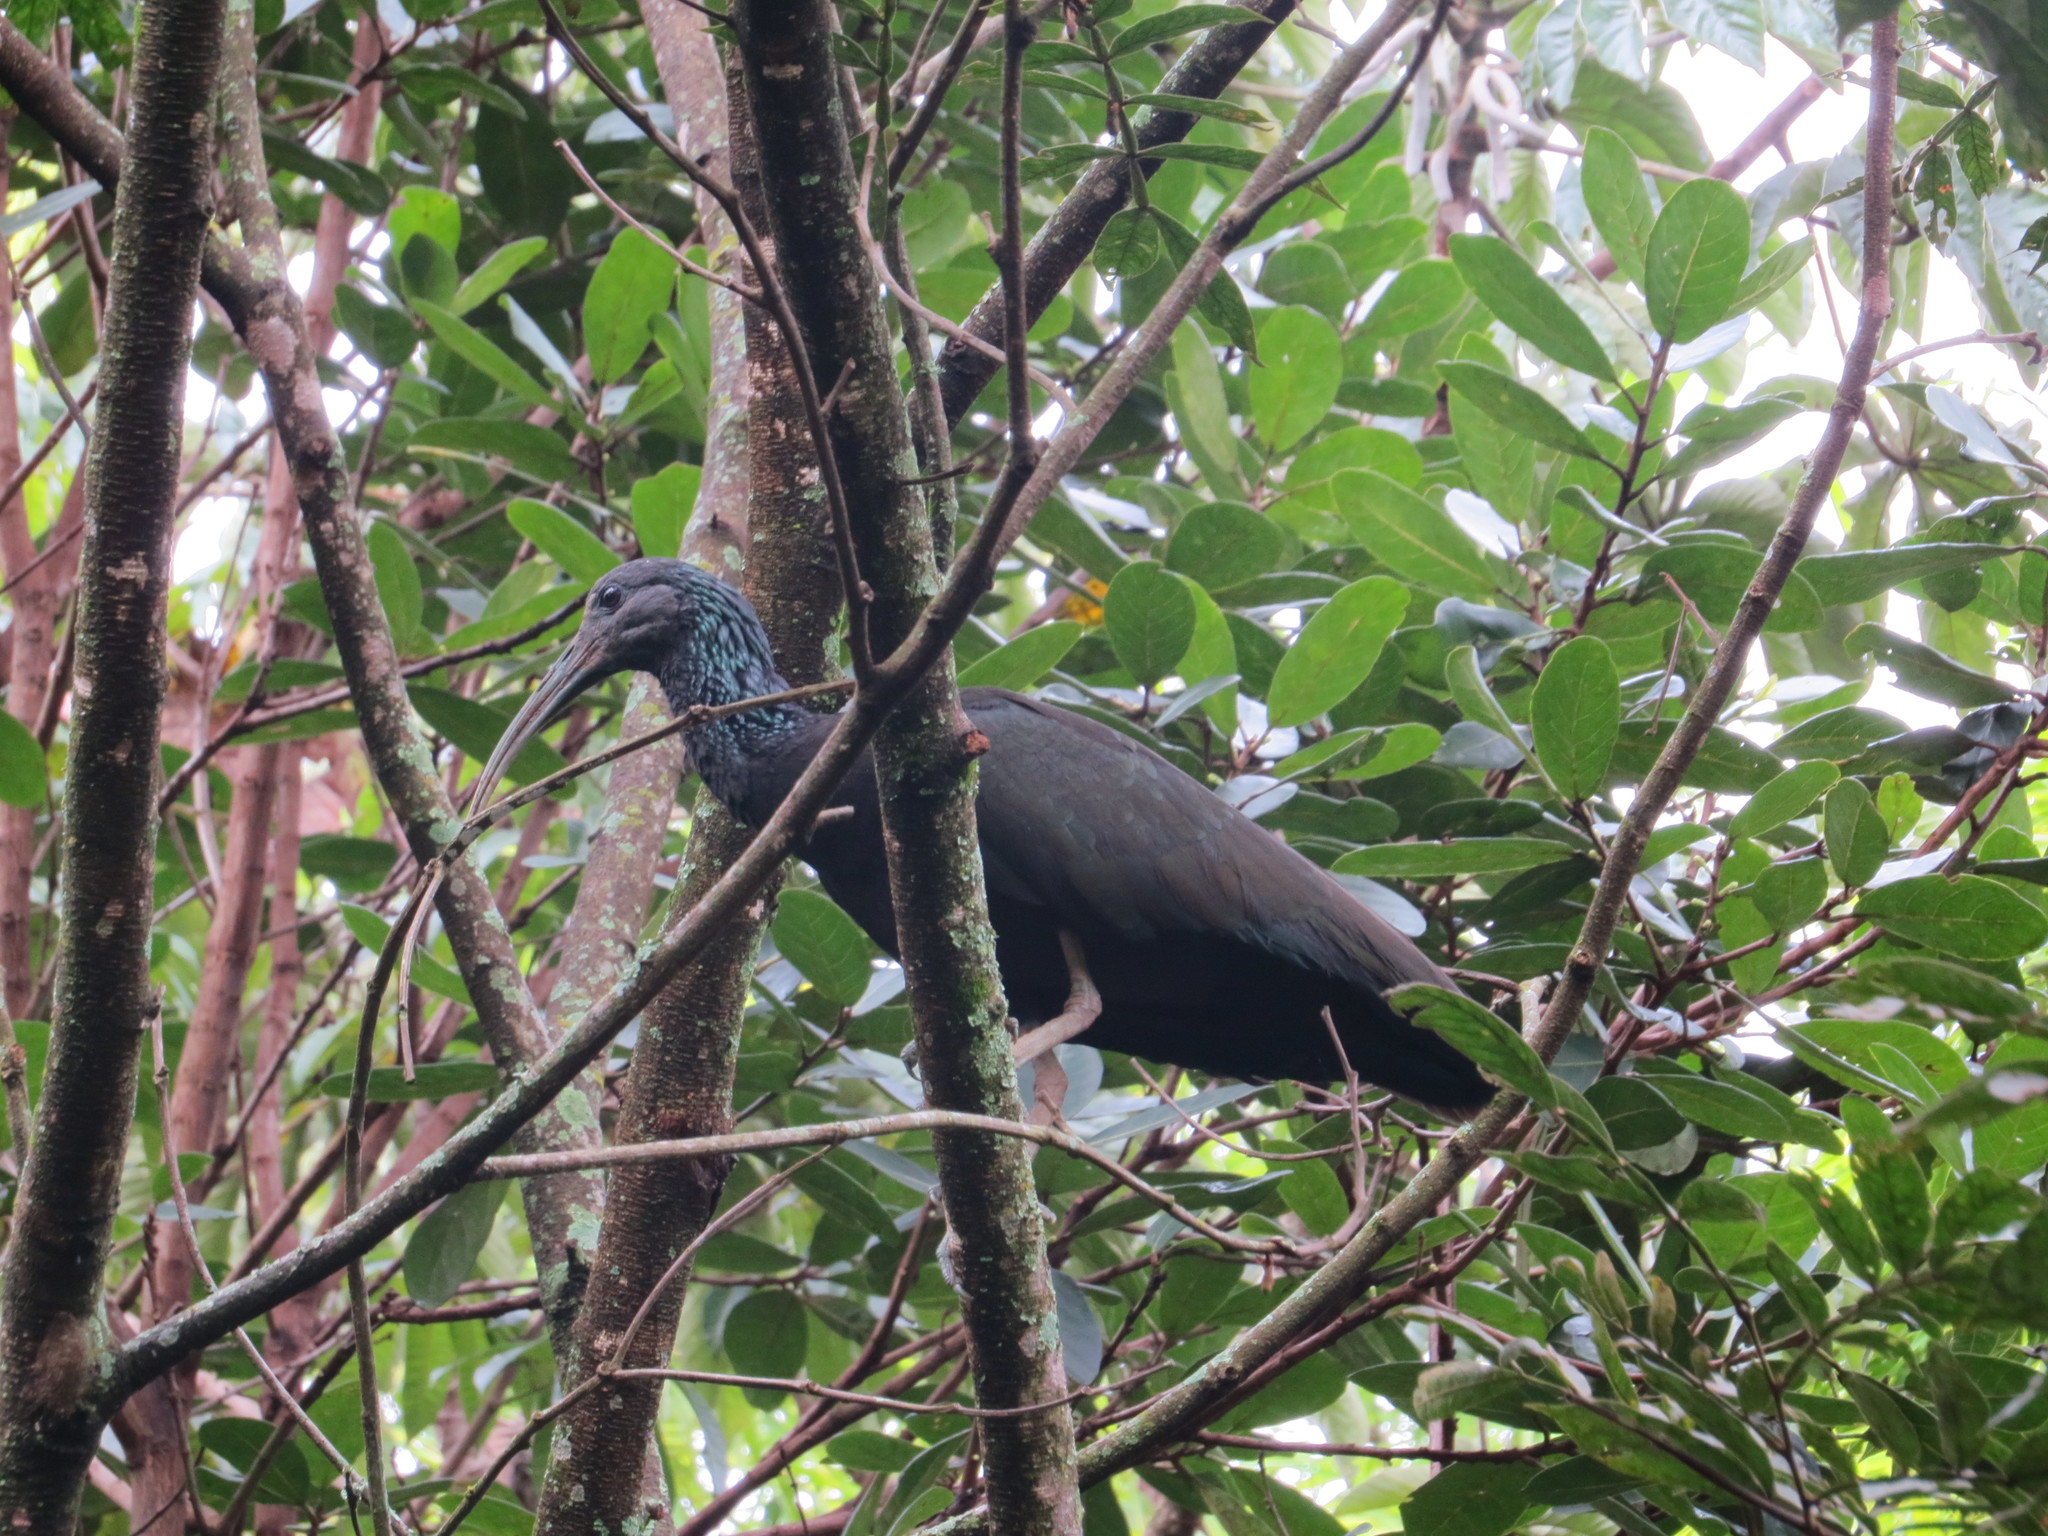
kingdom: Animalia
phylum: Chordata
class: Aves
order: Pelecaniformes
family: Threskiornithidae
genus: Mesembrinibis
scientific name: Mesembrinibis cayennensis
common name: Green ibis
